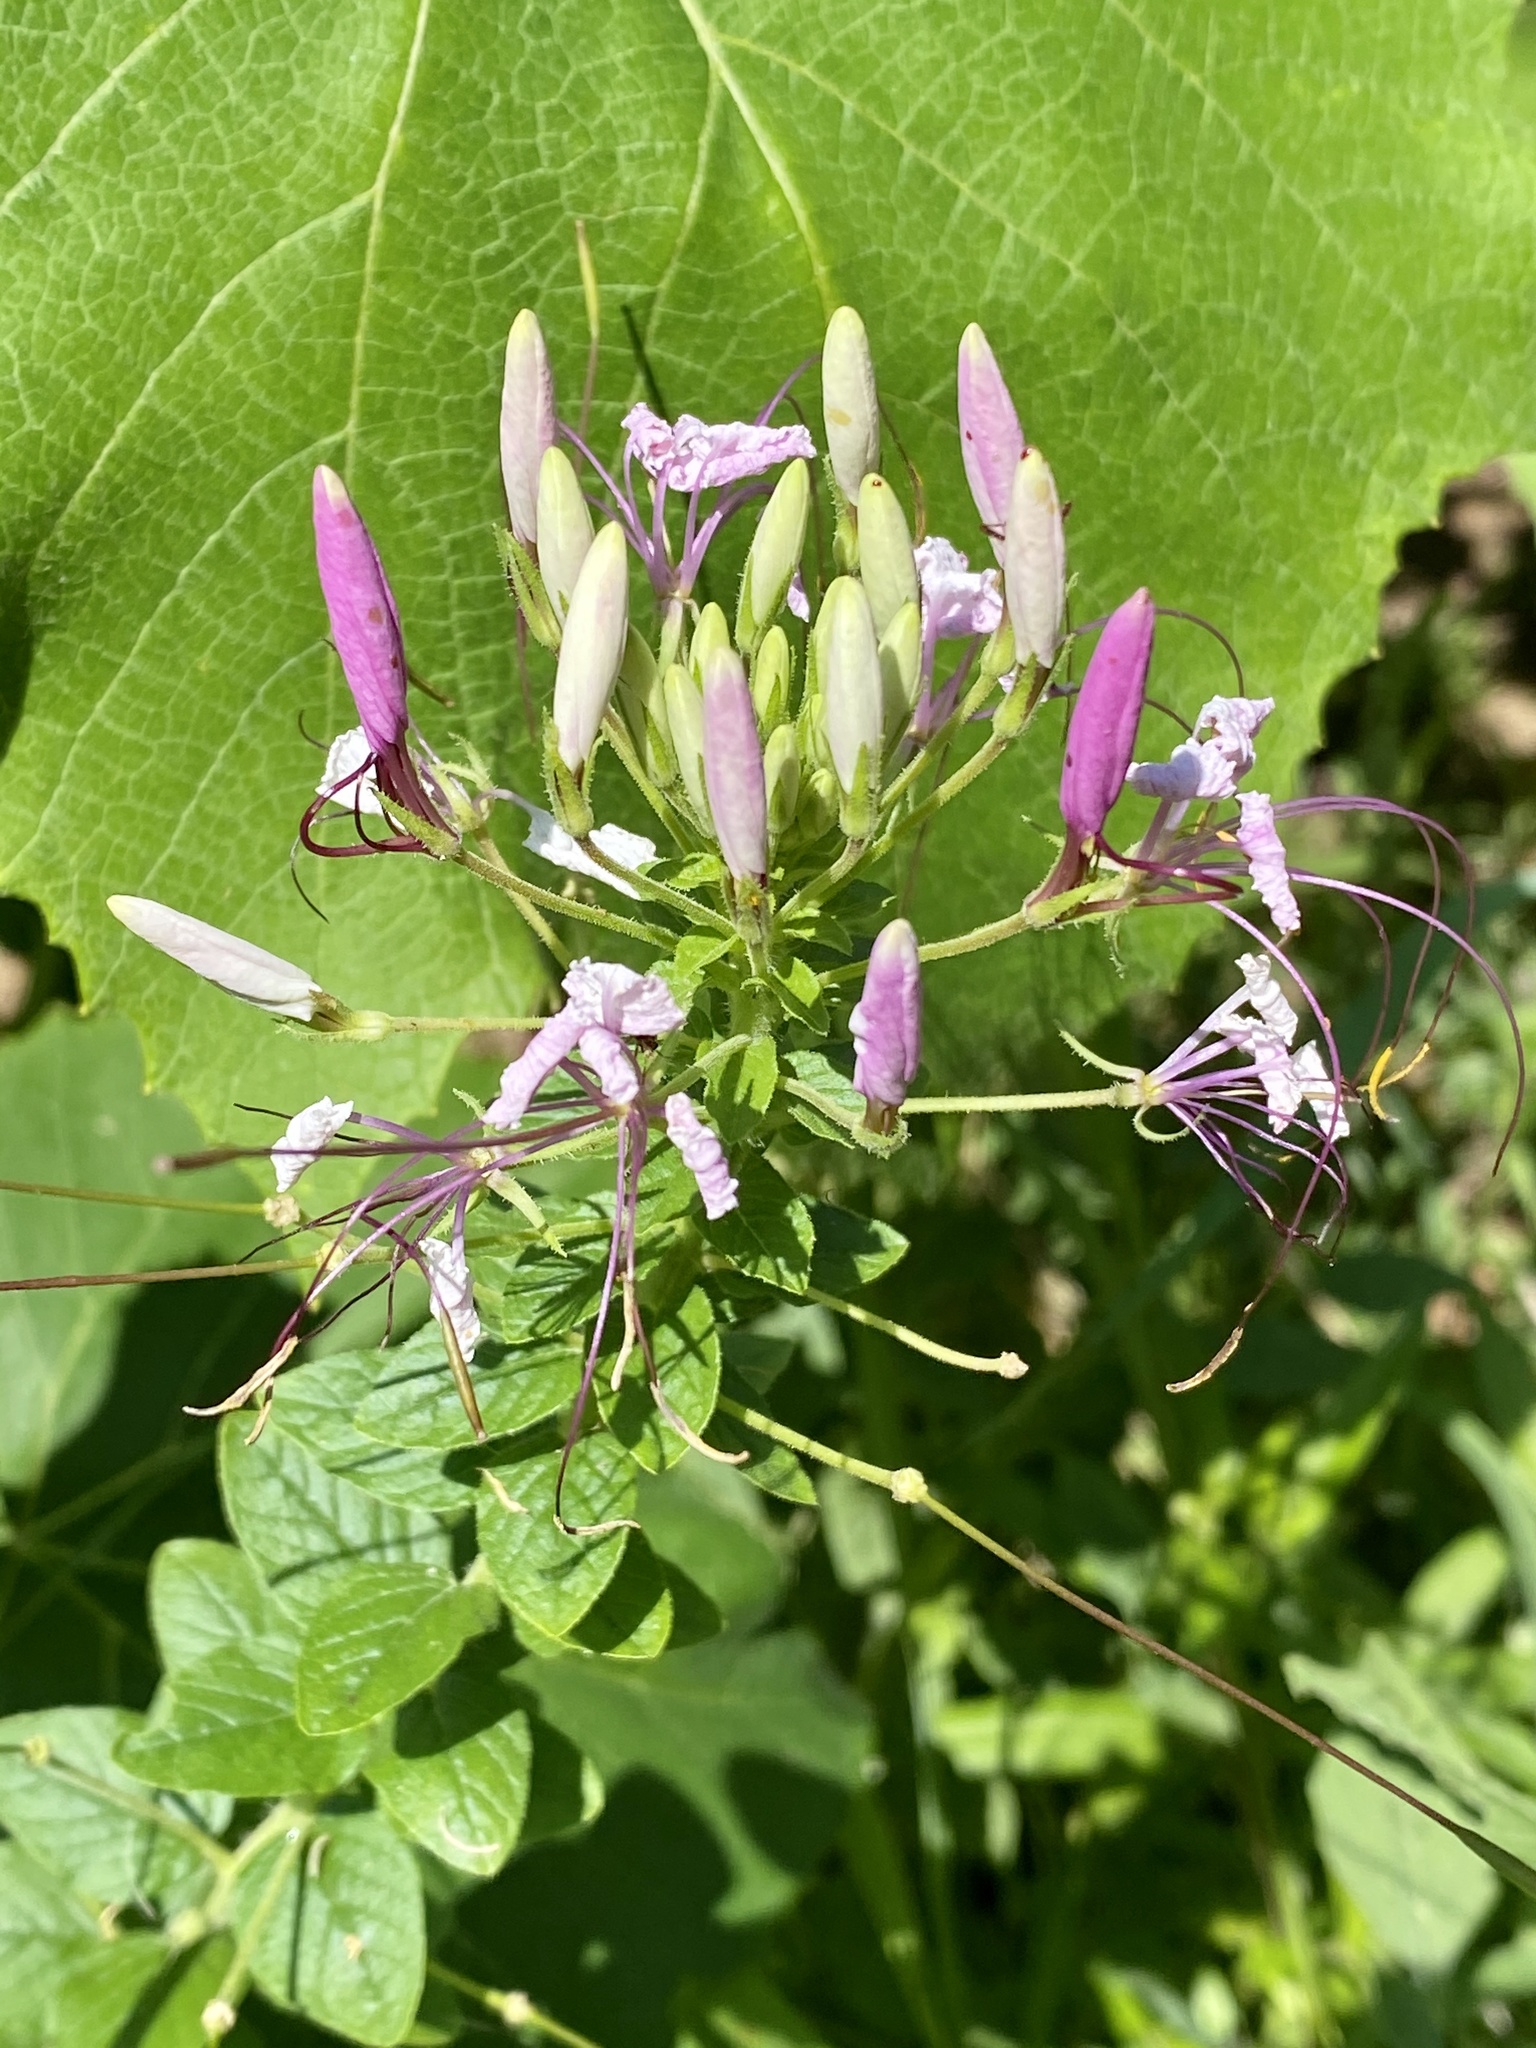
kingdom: Plantae
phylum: Tracheophyta
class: Magnoliopsida
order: Brassicales
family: Cleomaceae
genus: Tarenaya
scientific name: Tarenaya houtteana
